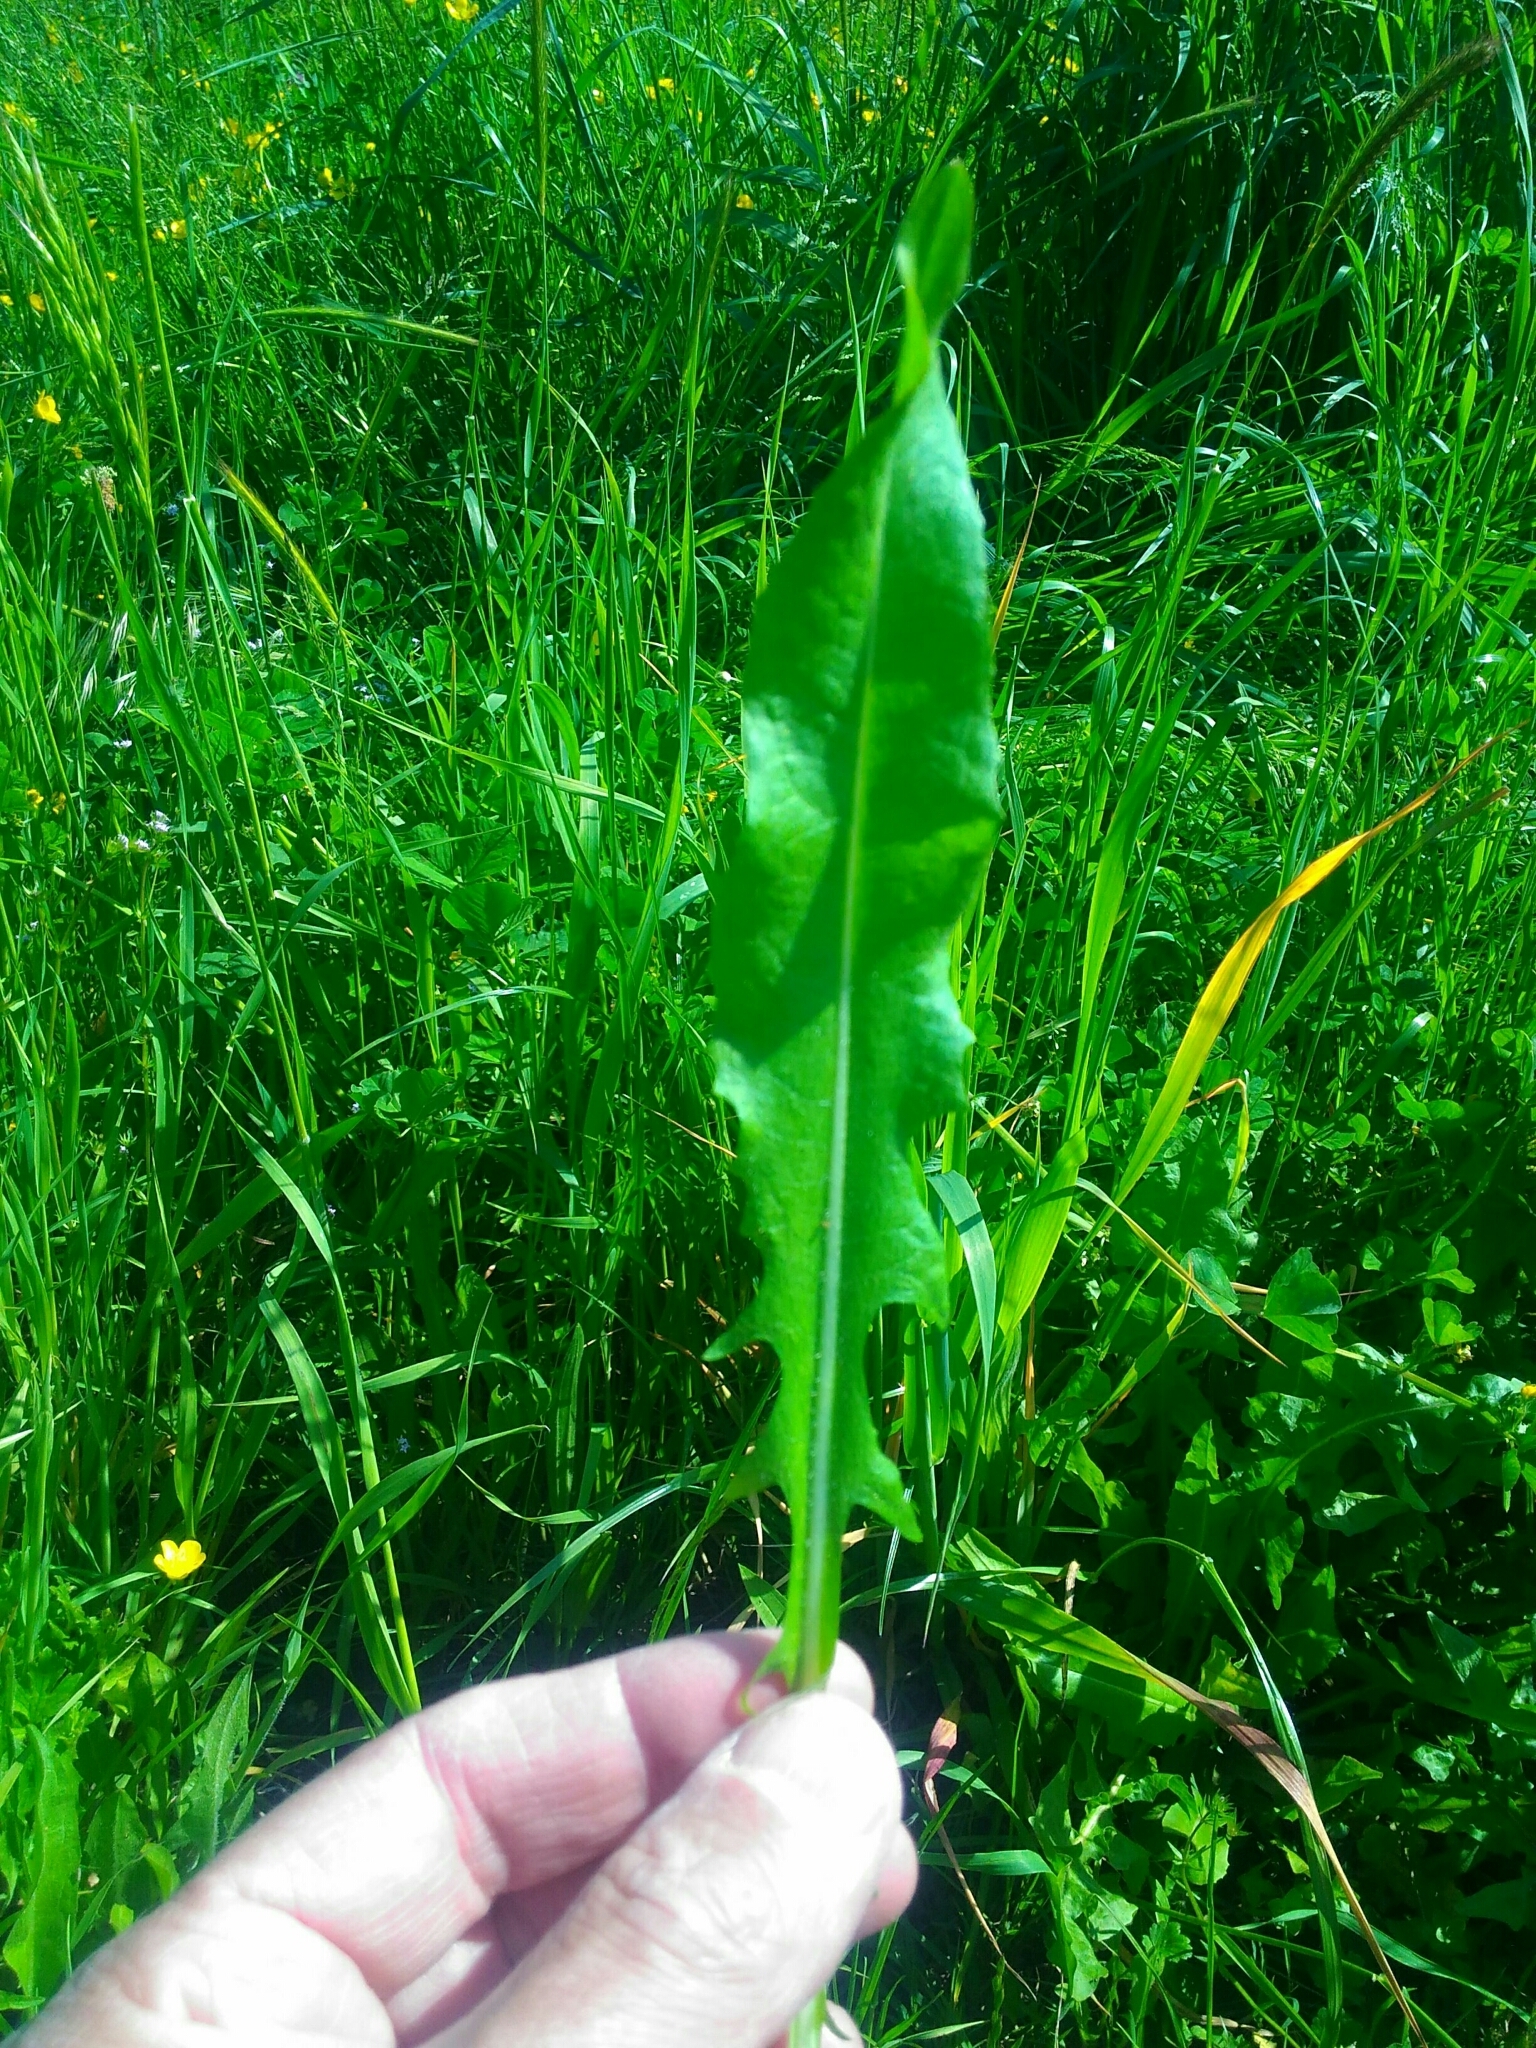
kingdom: Plantae
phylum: Tracheophyta
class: Magnoliopsida
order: Asterales
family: Asteraceae
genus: Cichorium
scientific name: Cichorium intybus
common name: Chicory
